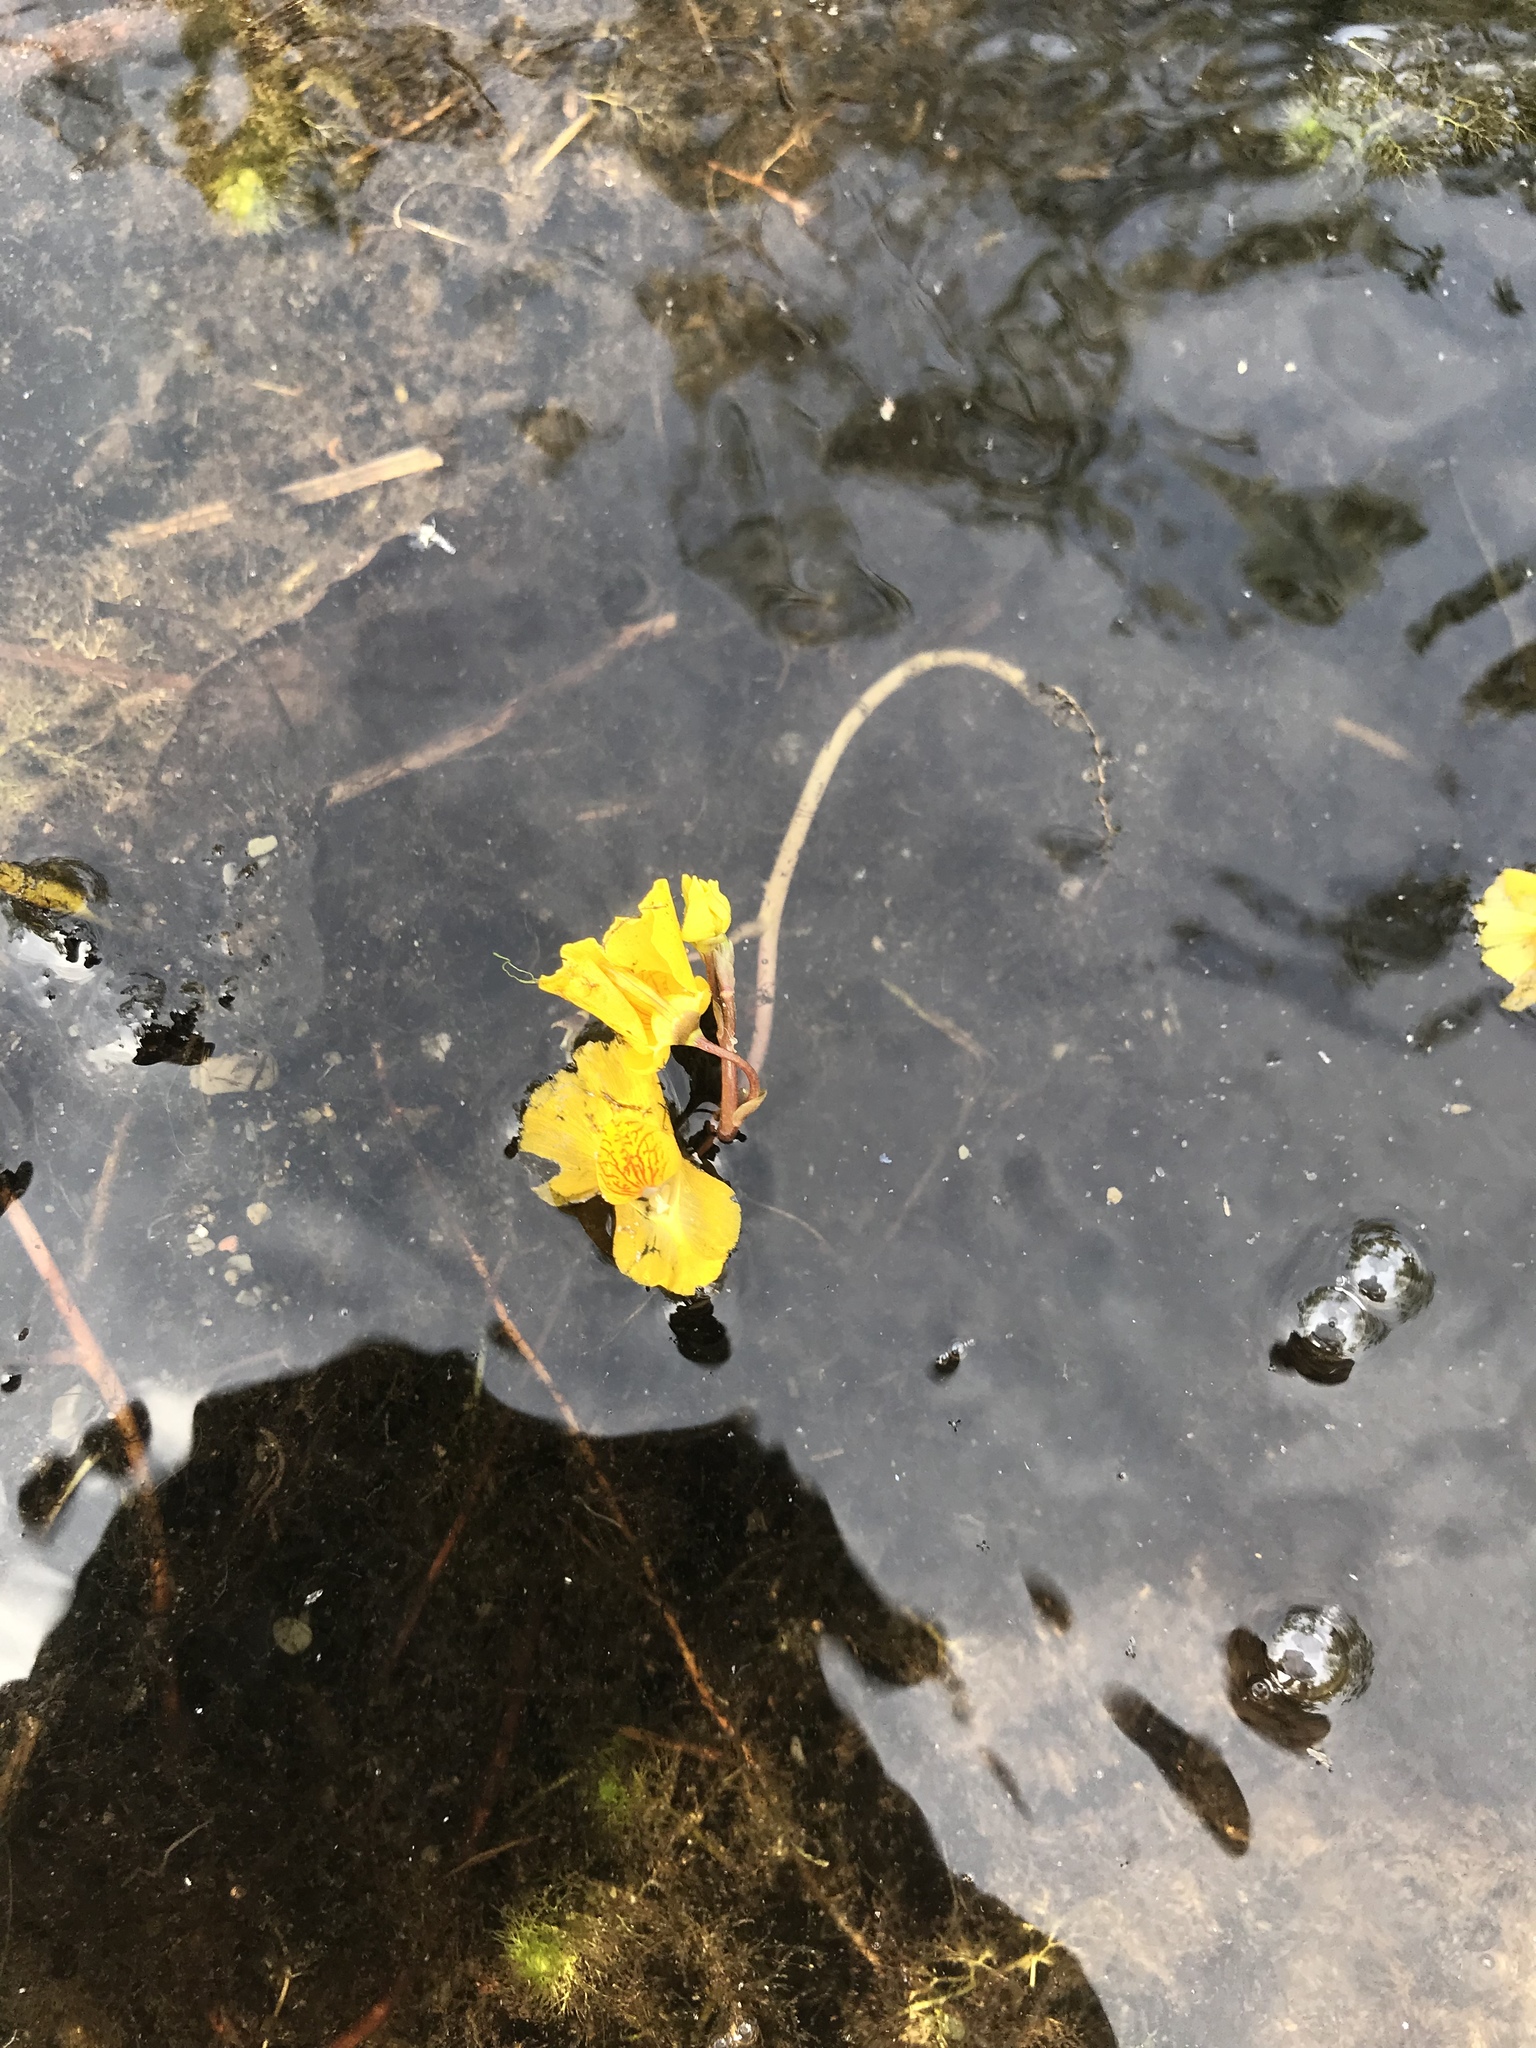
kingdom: Plantae
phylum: Tracheophyta
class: Magnoliopsida
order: Lamiales
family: Lentibulariaceae
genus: Utricularia
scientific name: Utricularia macrorhiza
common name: Common bladderwort
